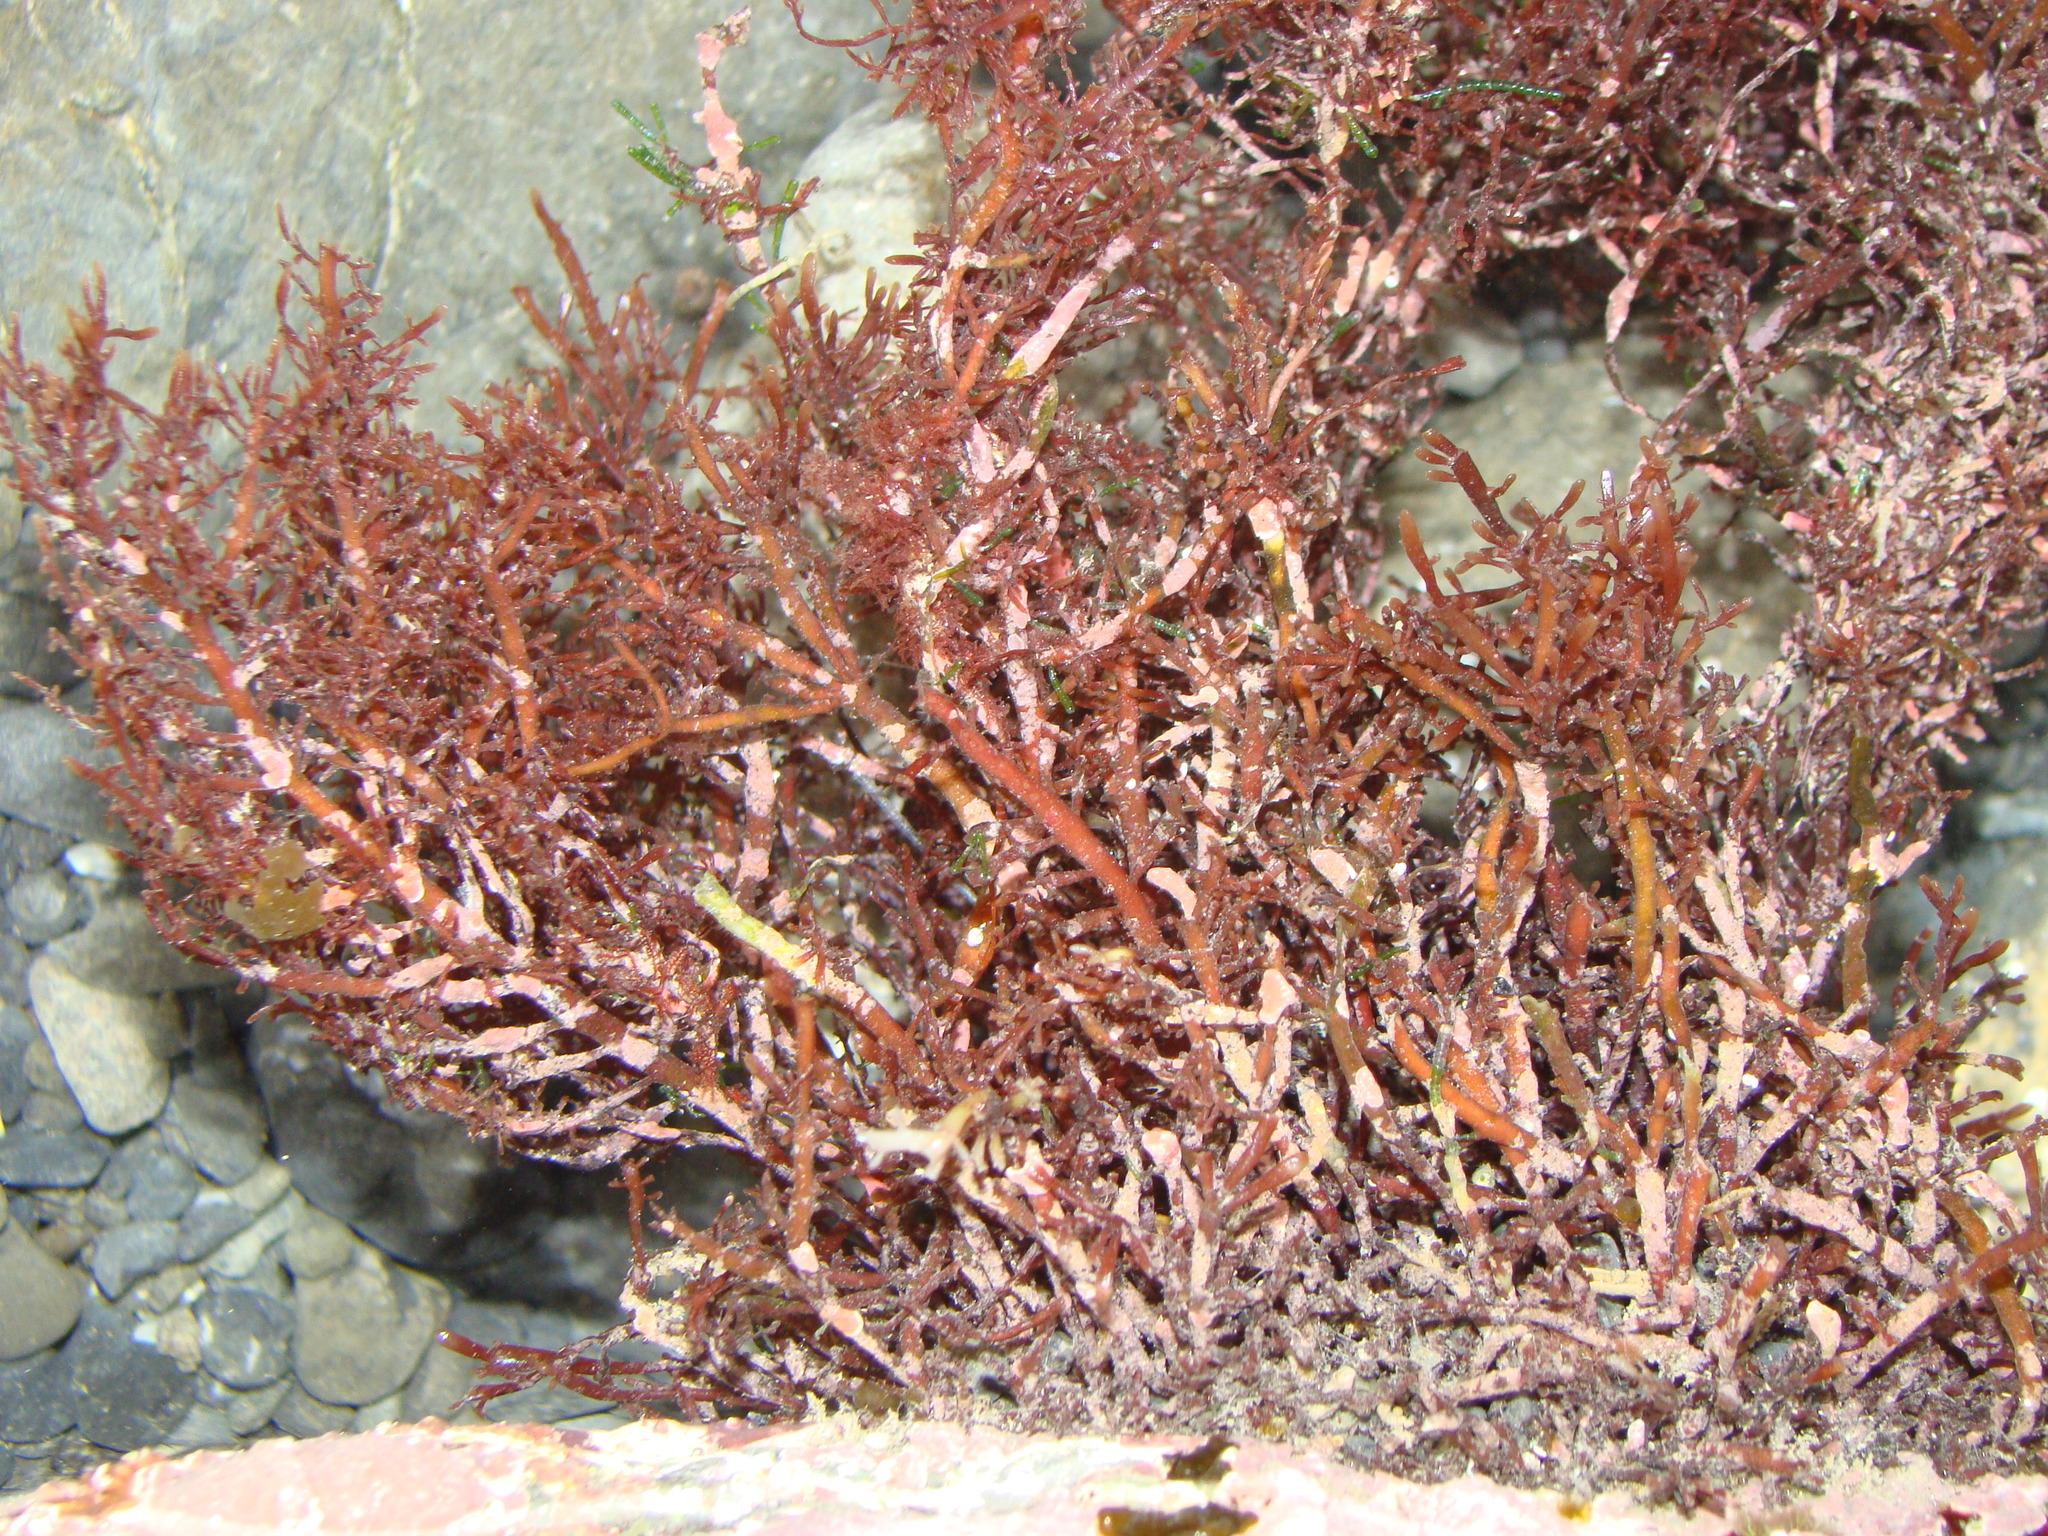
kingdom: Plantae
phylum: Rhodophyta
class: Florideophyceae
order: Gelidiales
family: Pterocladiaceae
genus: Pterocladiella
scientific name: Pterocladiella capillacea
